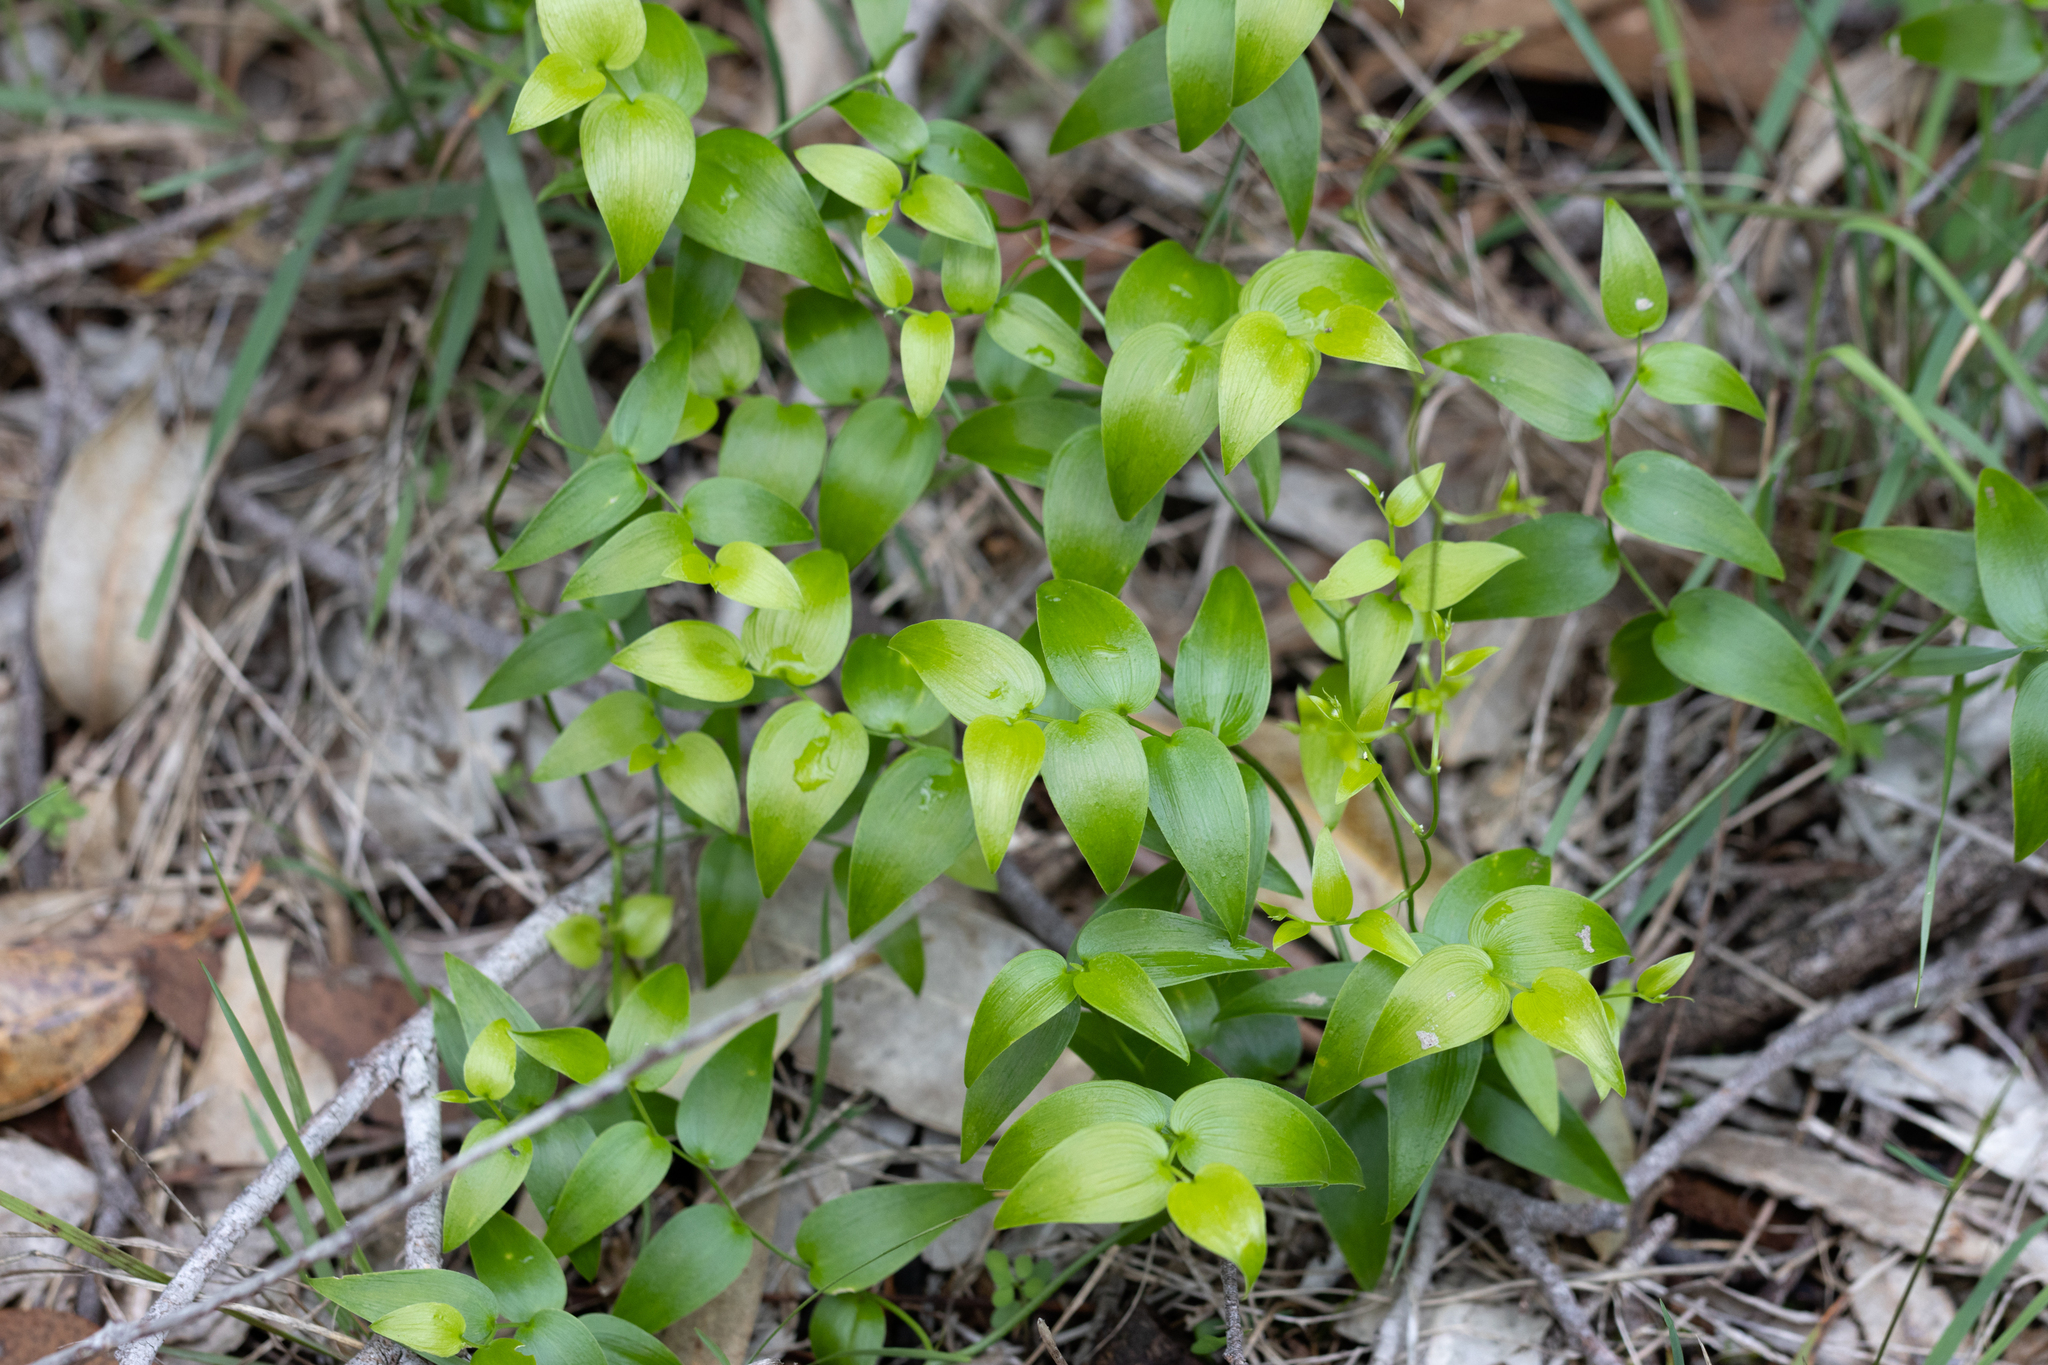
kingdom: Plantae
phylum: Tracheophyta
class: Liliopsida
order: Asparagales
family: Asparagaceae
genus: Asparagus
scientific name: Asparagus asparagoides
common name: African asparagus fern
